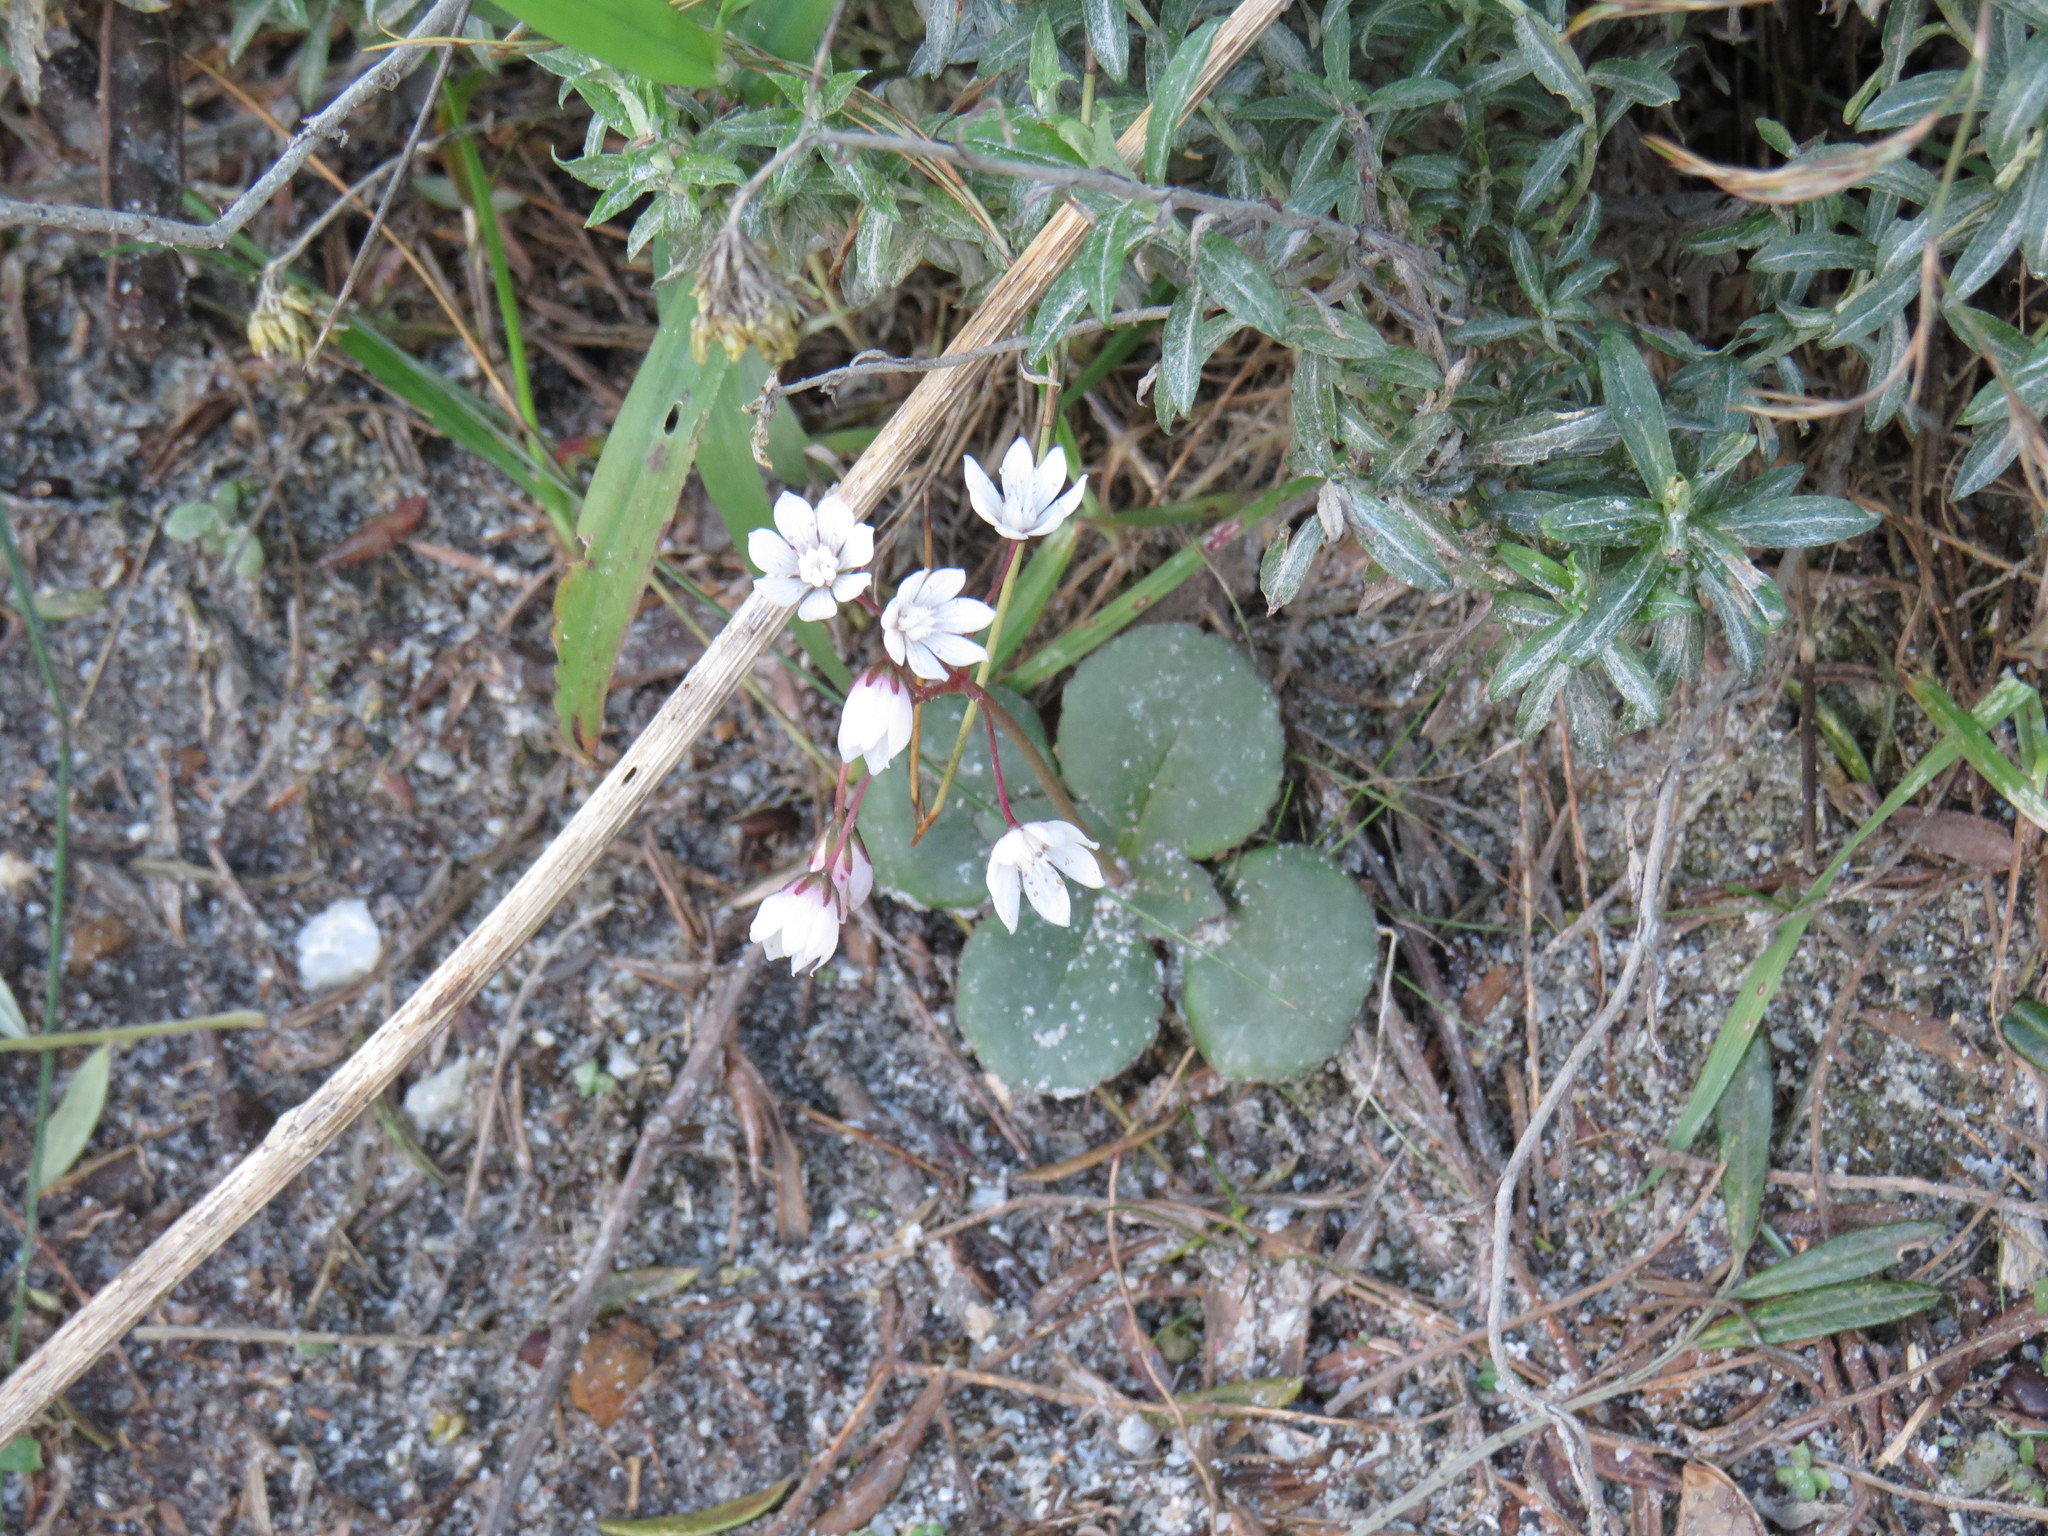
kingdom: Plantae
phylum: Tracheophyta
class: Magnoliopsida
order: Saxifragales
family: Crassulaceae
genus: Crassula
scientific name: Crassula capensis
